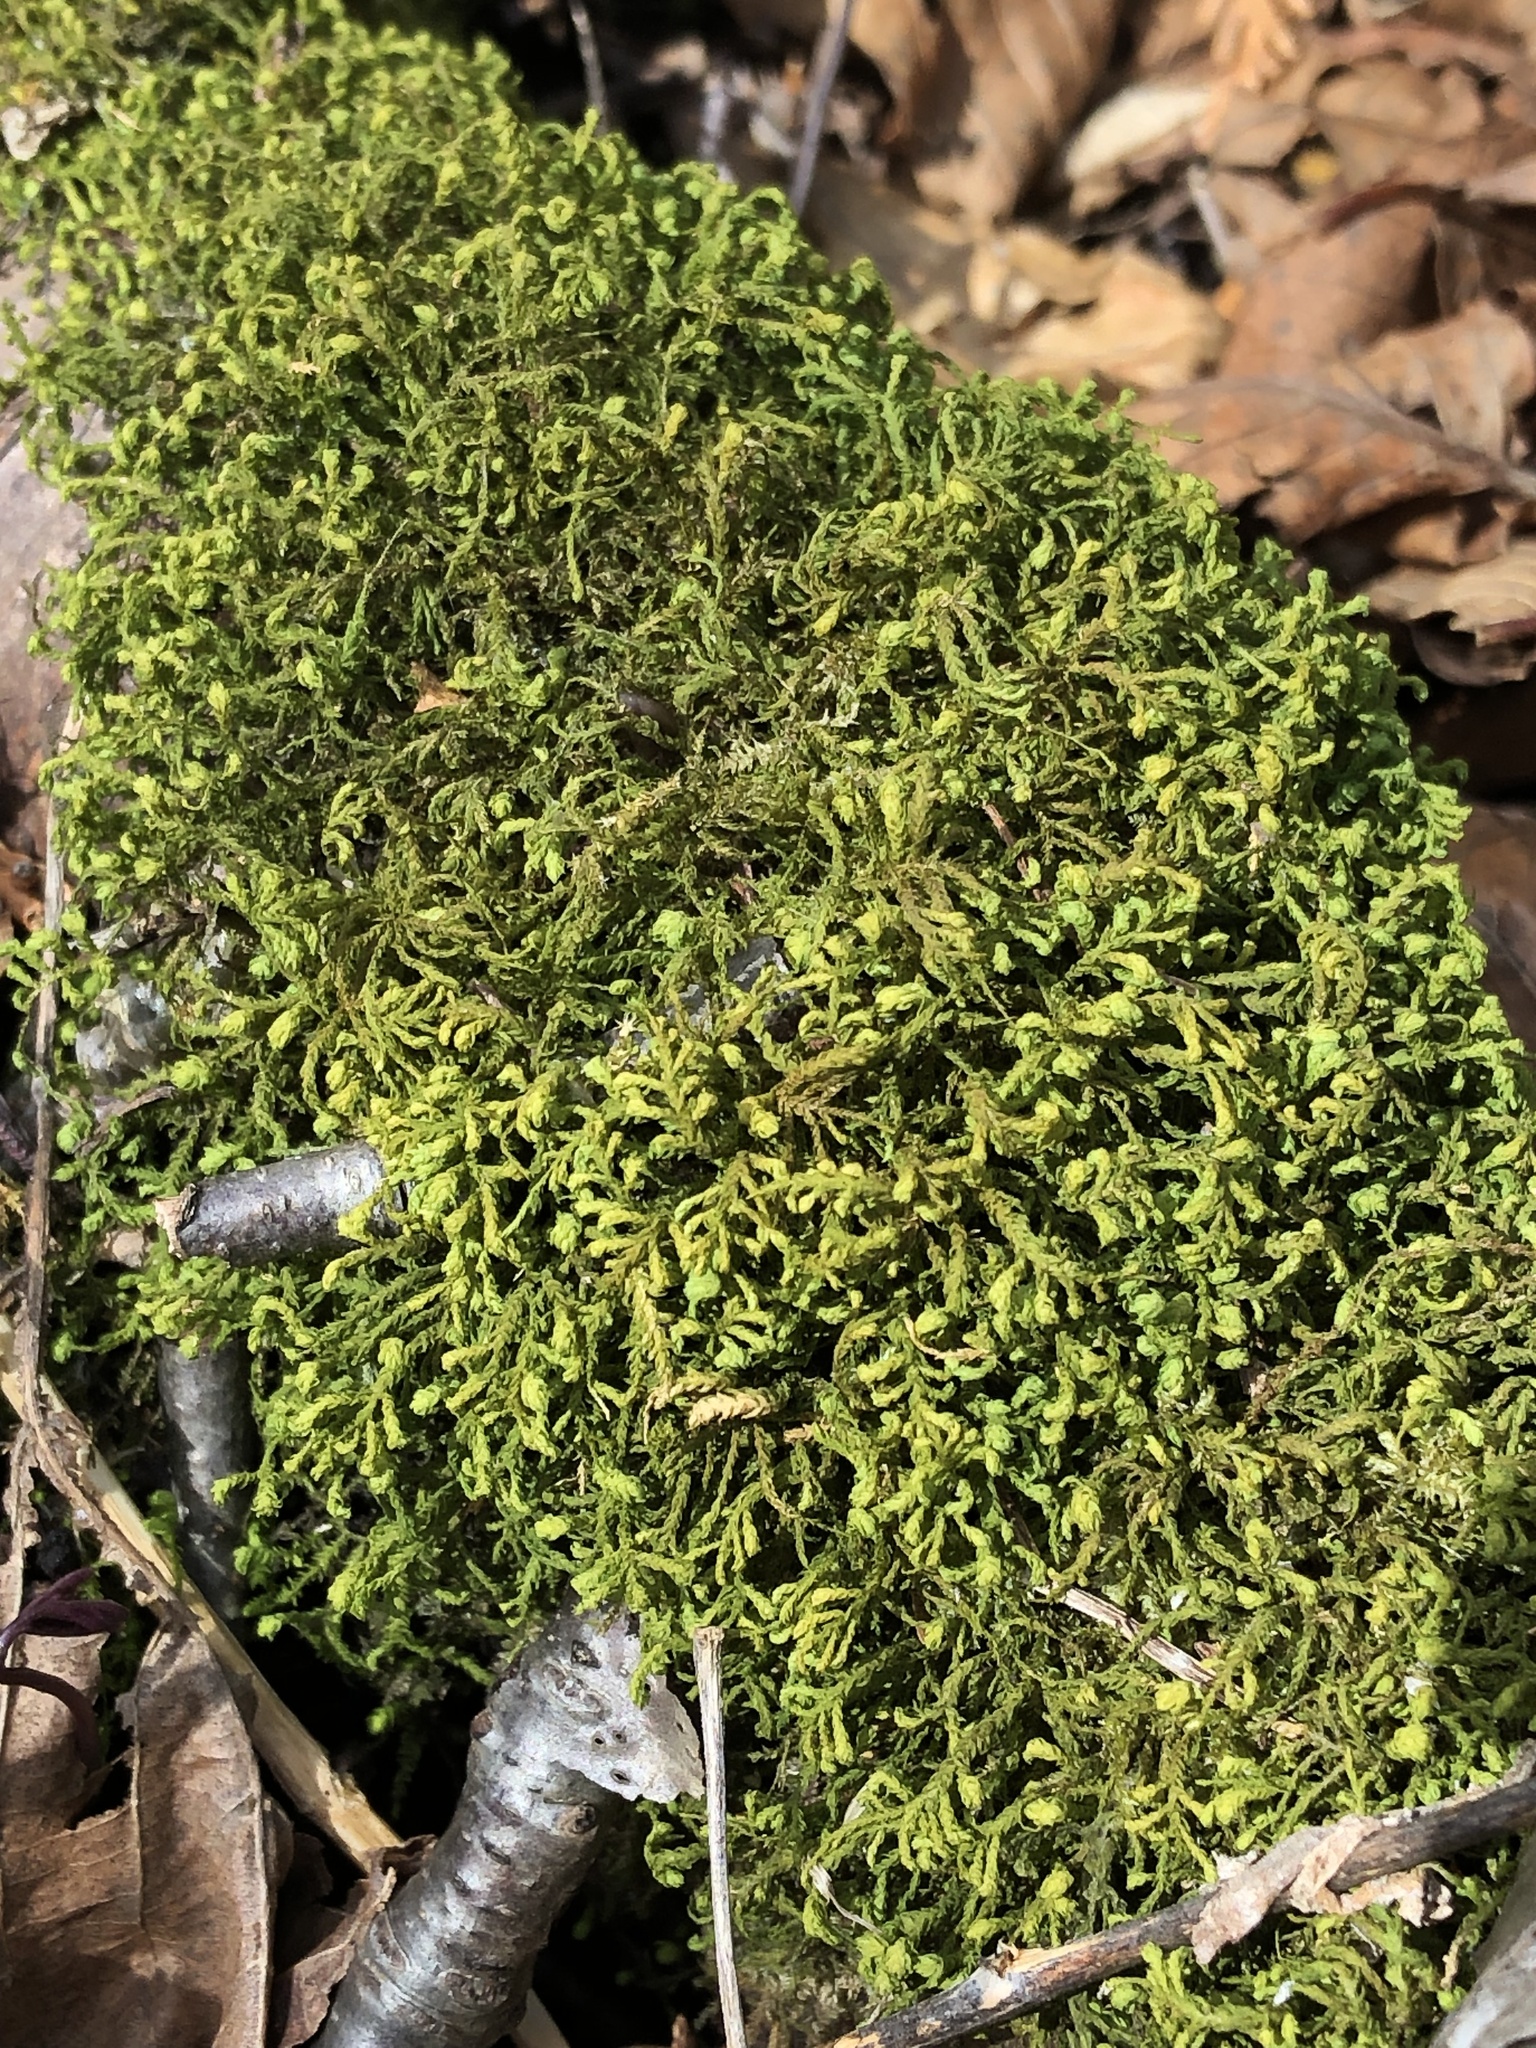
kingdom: Plantae
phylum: Bryophyta
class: Bryopsida
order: Hypnales
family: Neckeraceae
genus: Pseudanomodon
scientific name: Pseudanomodon attenuatus
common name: Tree-skirt moss
